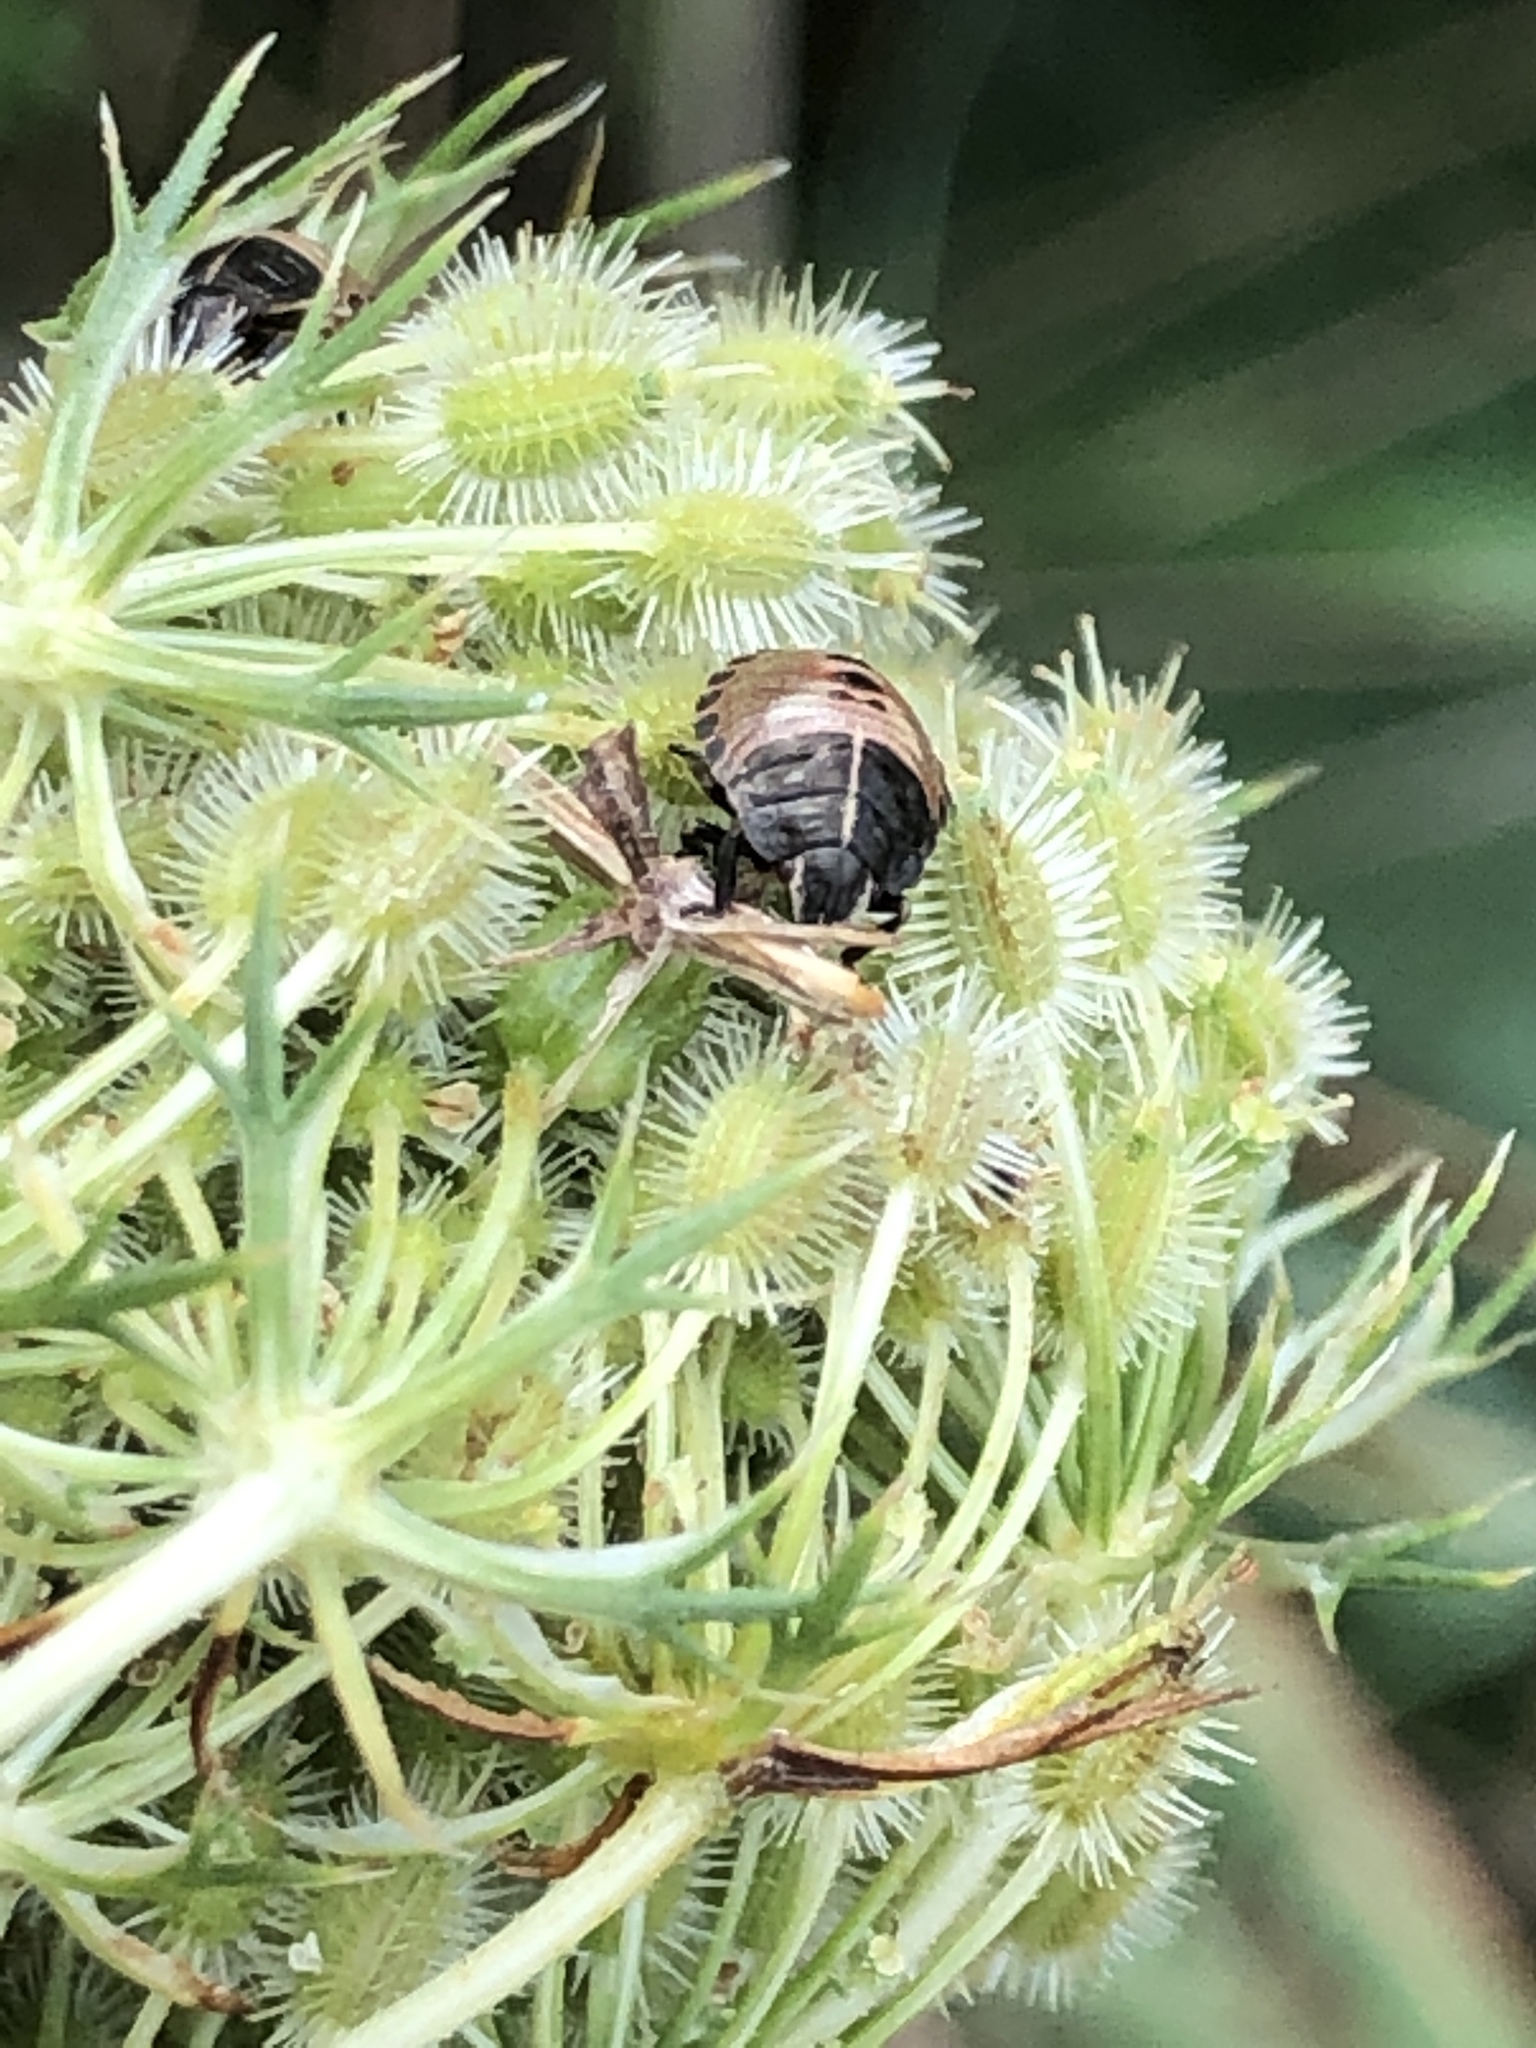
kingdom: Animalia
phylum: Arthropoda
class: Insecta
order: Hemiptera
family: Pentatomidae
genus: Graphosoma
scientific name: Graphosoma italicum
